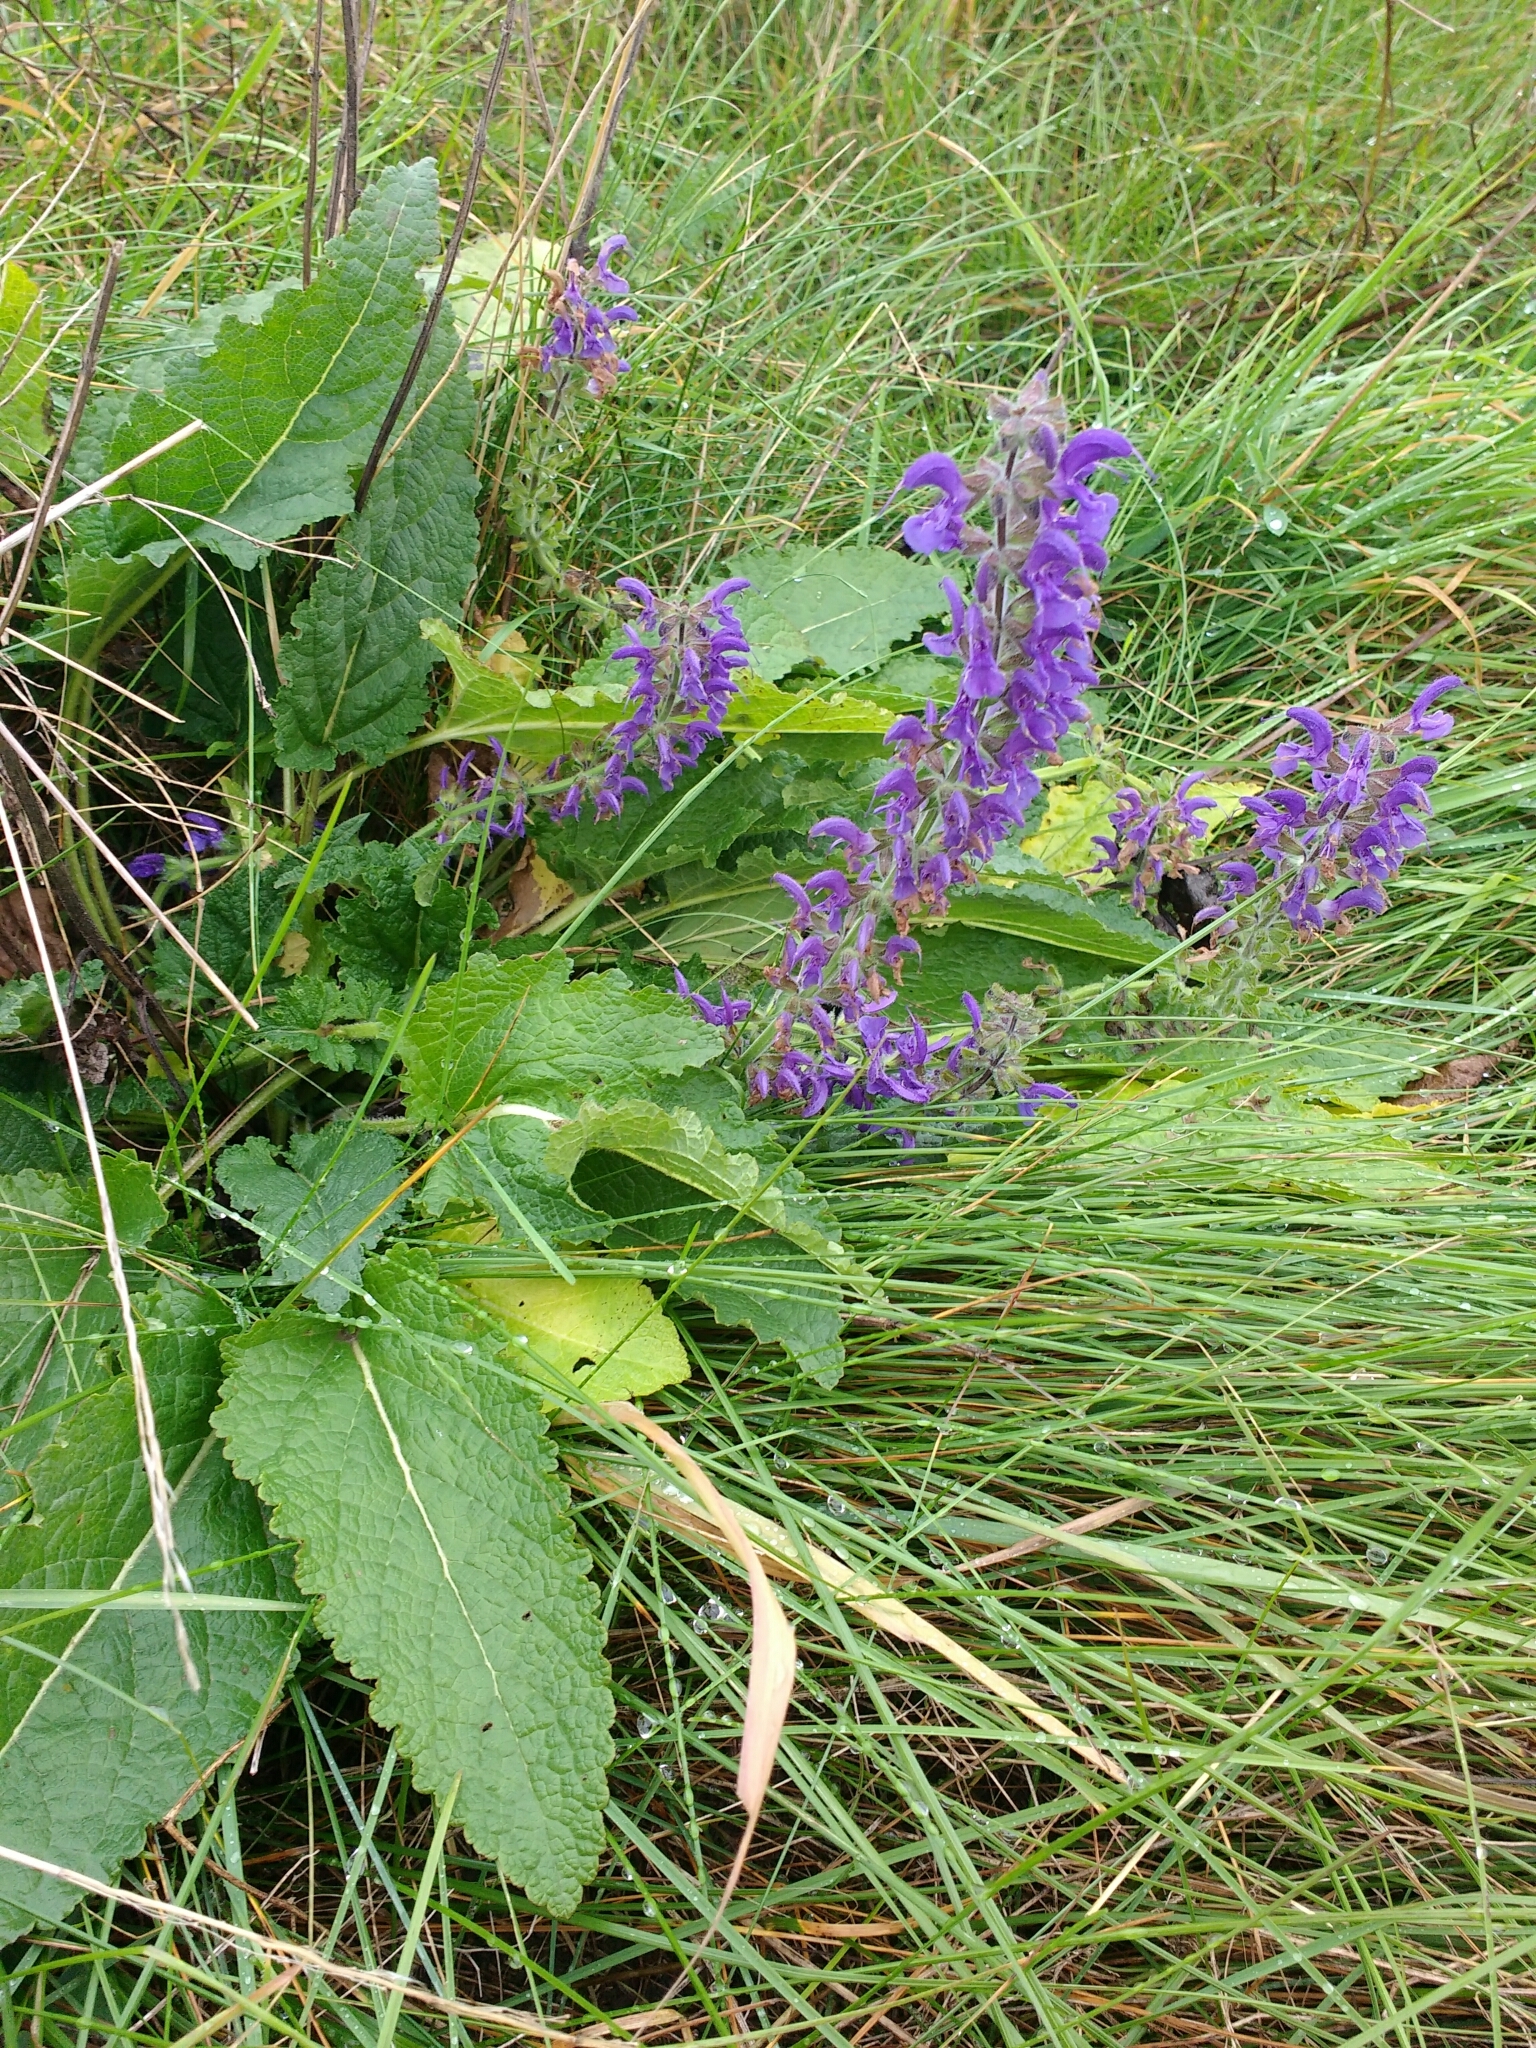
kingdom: Plantae
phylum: Tracheophyta
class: Magnoliopsida
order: Lamiales
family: Lamiaceae
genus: Salvia
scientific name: Salvia pratensis
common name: Meadow sage
